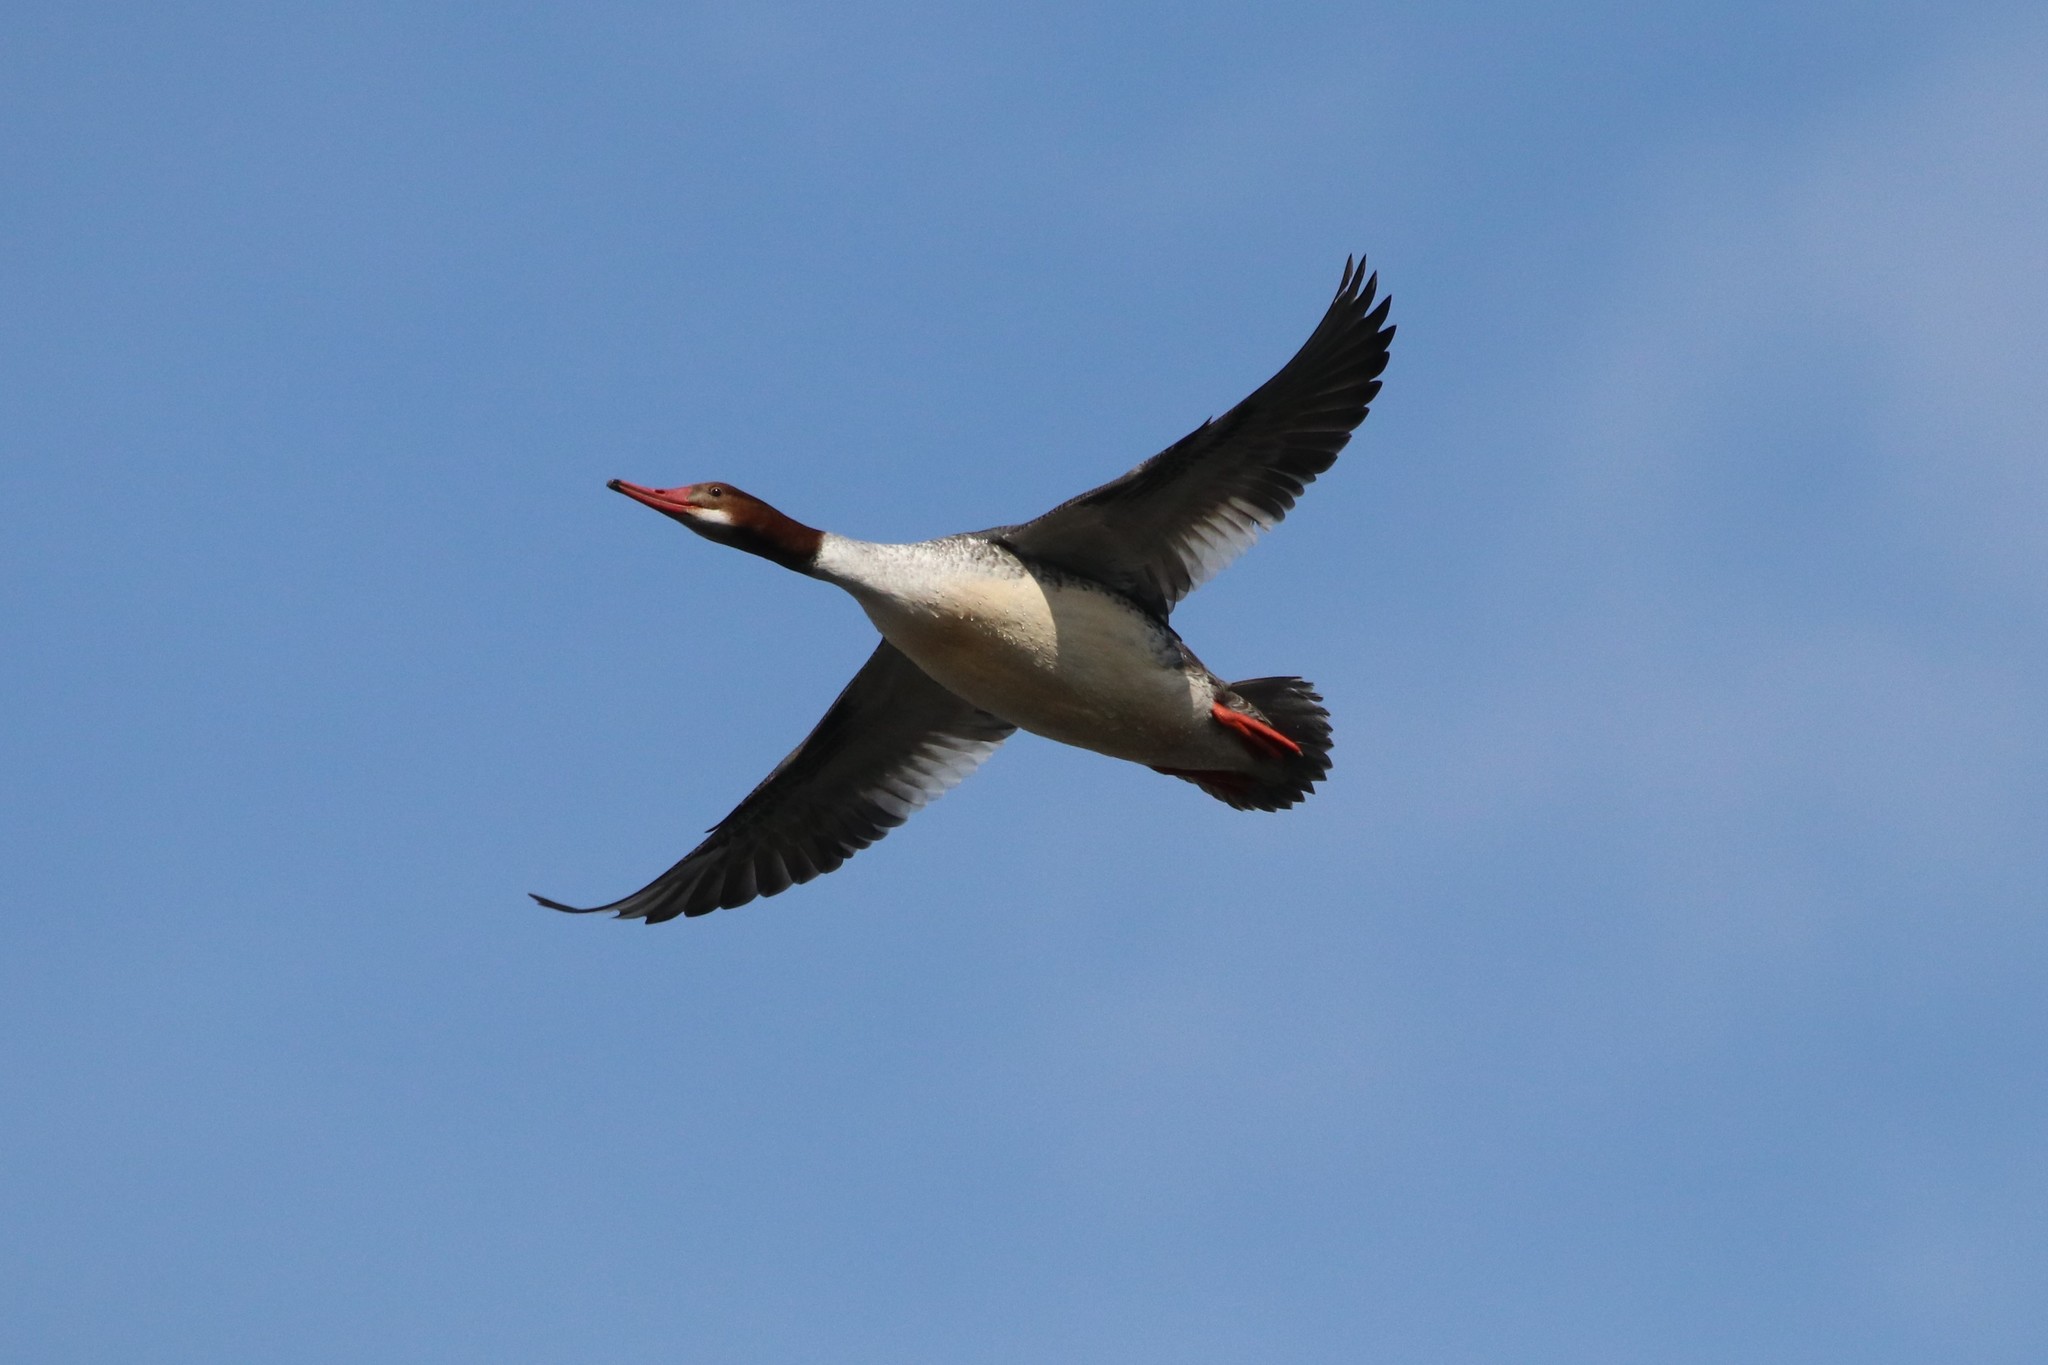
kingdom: Animalia
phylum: Chordata
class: Aves
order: Anseriformes
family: Anatidae
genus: Mergus
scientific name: Mergus merganser
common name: Common merganser
